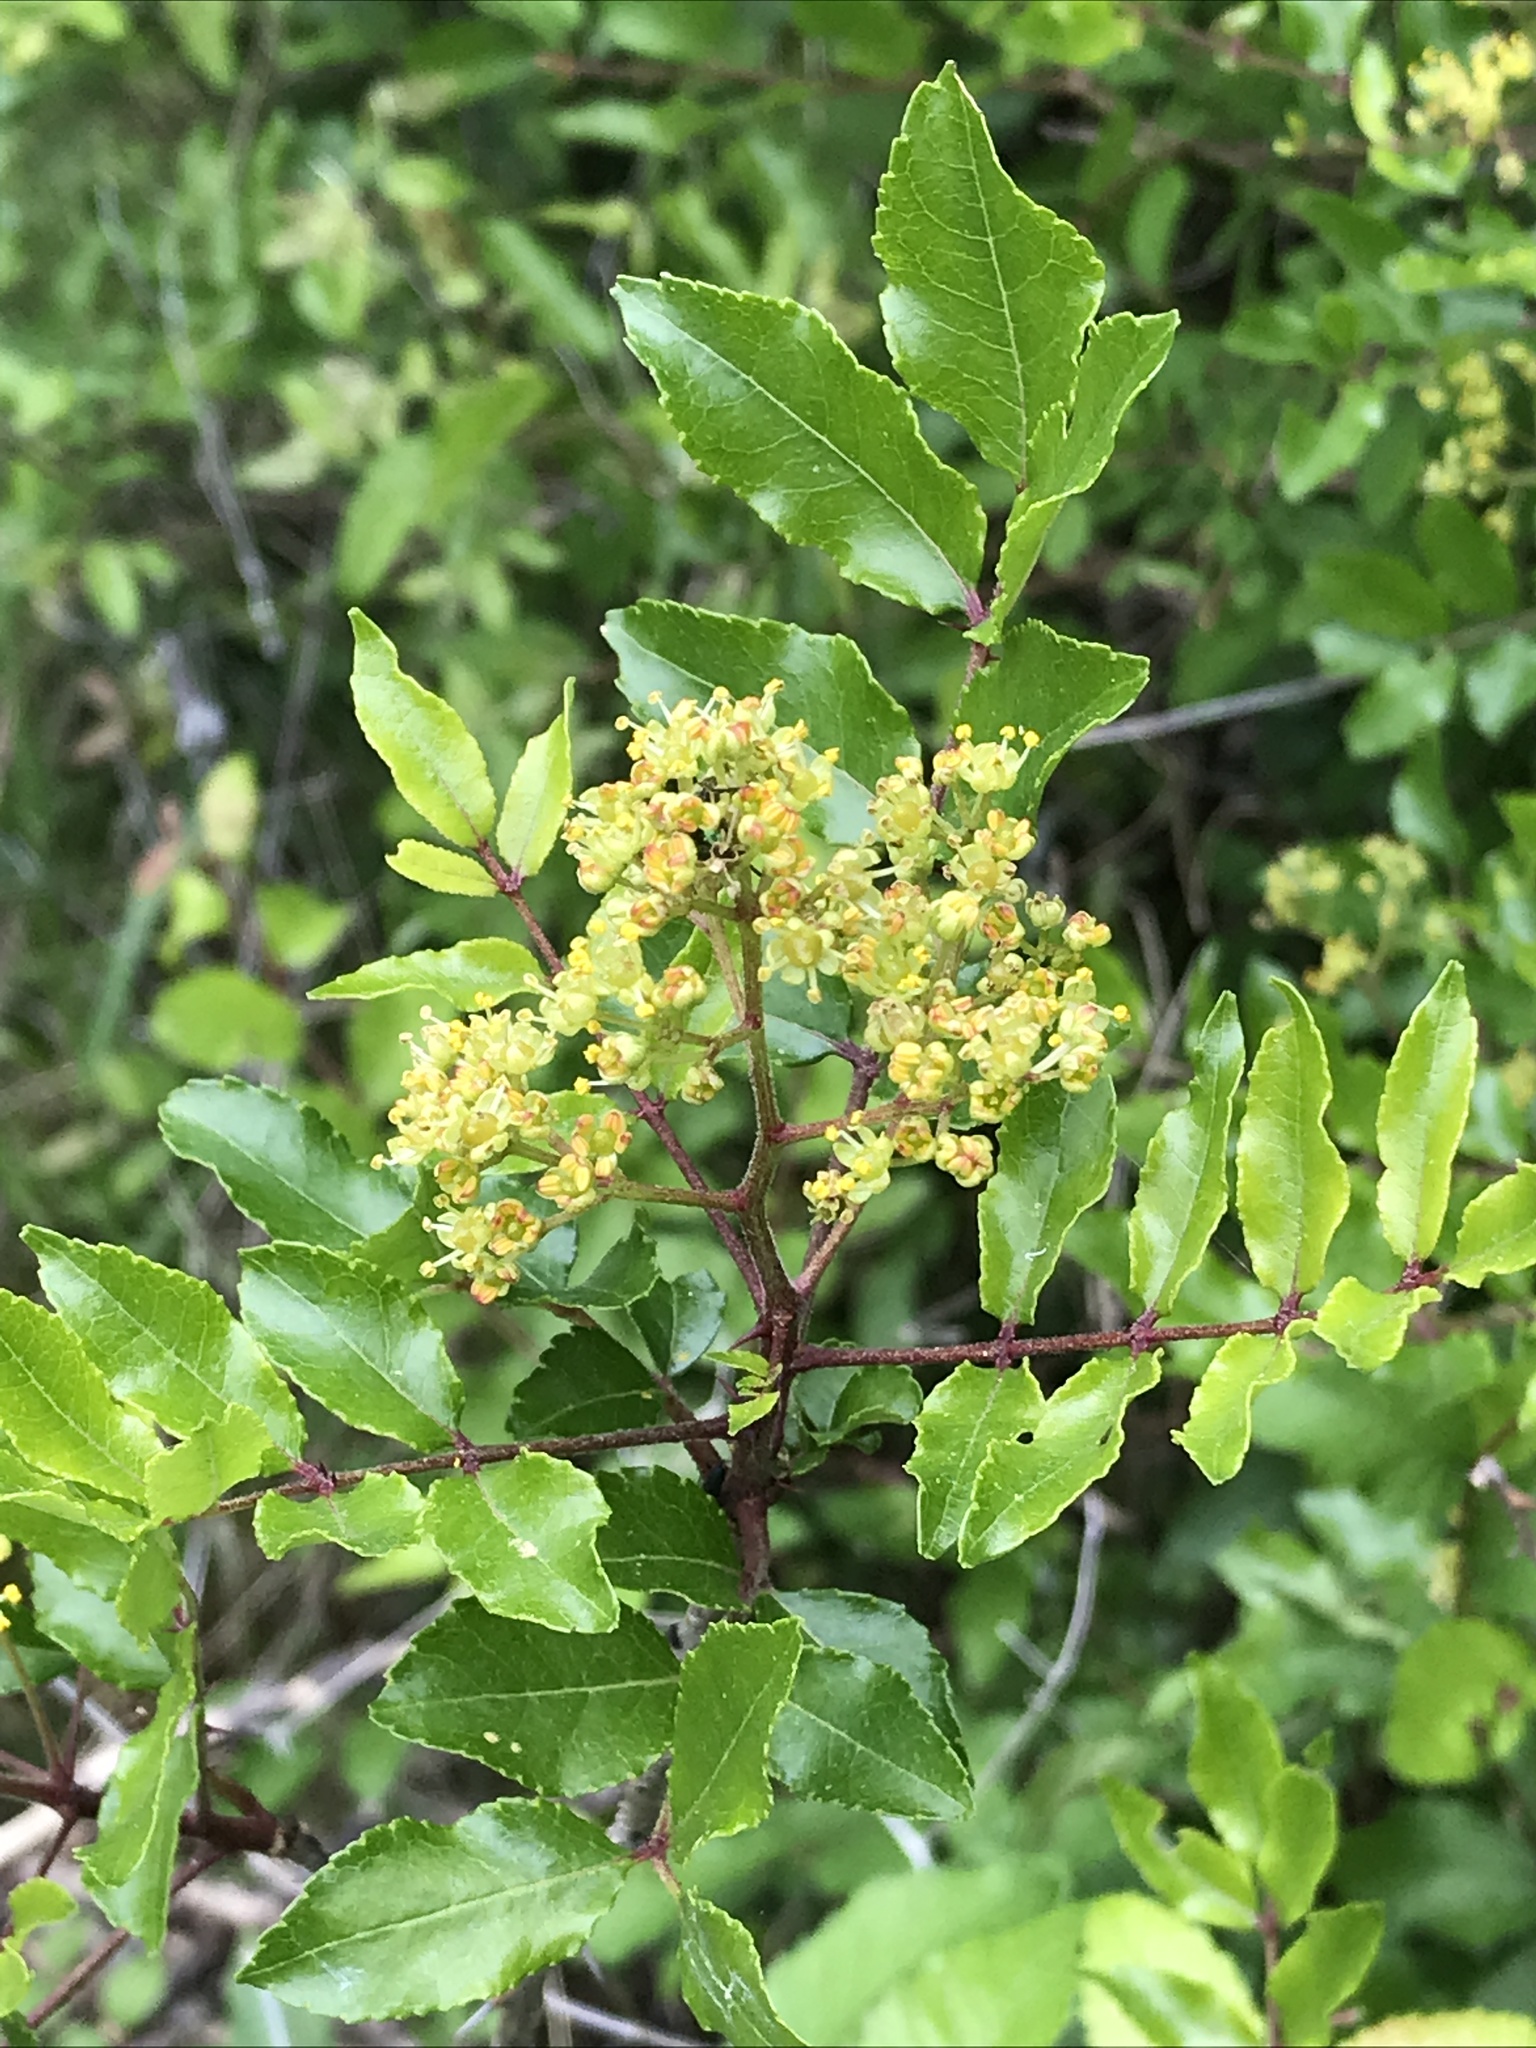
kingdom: Plantae
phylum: Tracheophyta
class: Magnoliopsida
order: Sapindales
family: Rutaceae
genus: Zanthoxylum
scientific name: Zanthoxylum clava-herculis
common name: Hercules'-club
